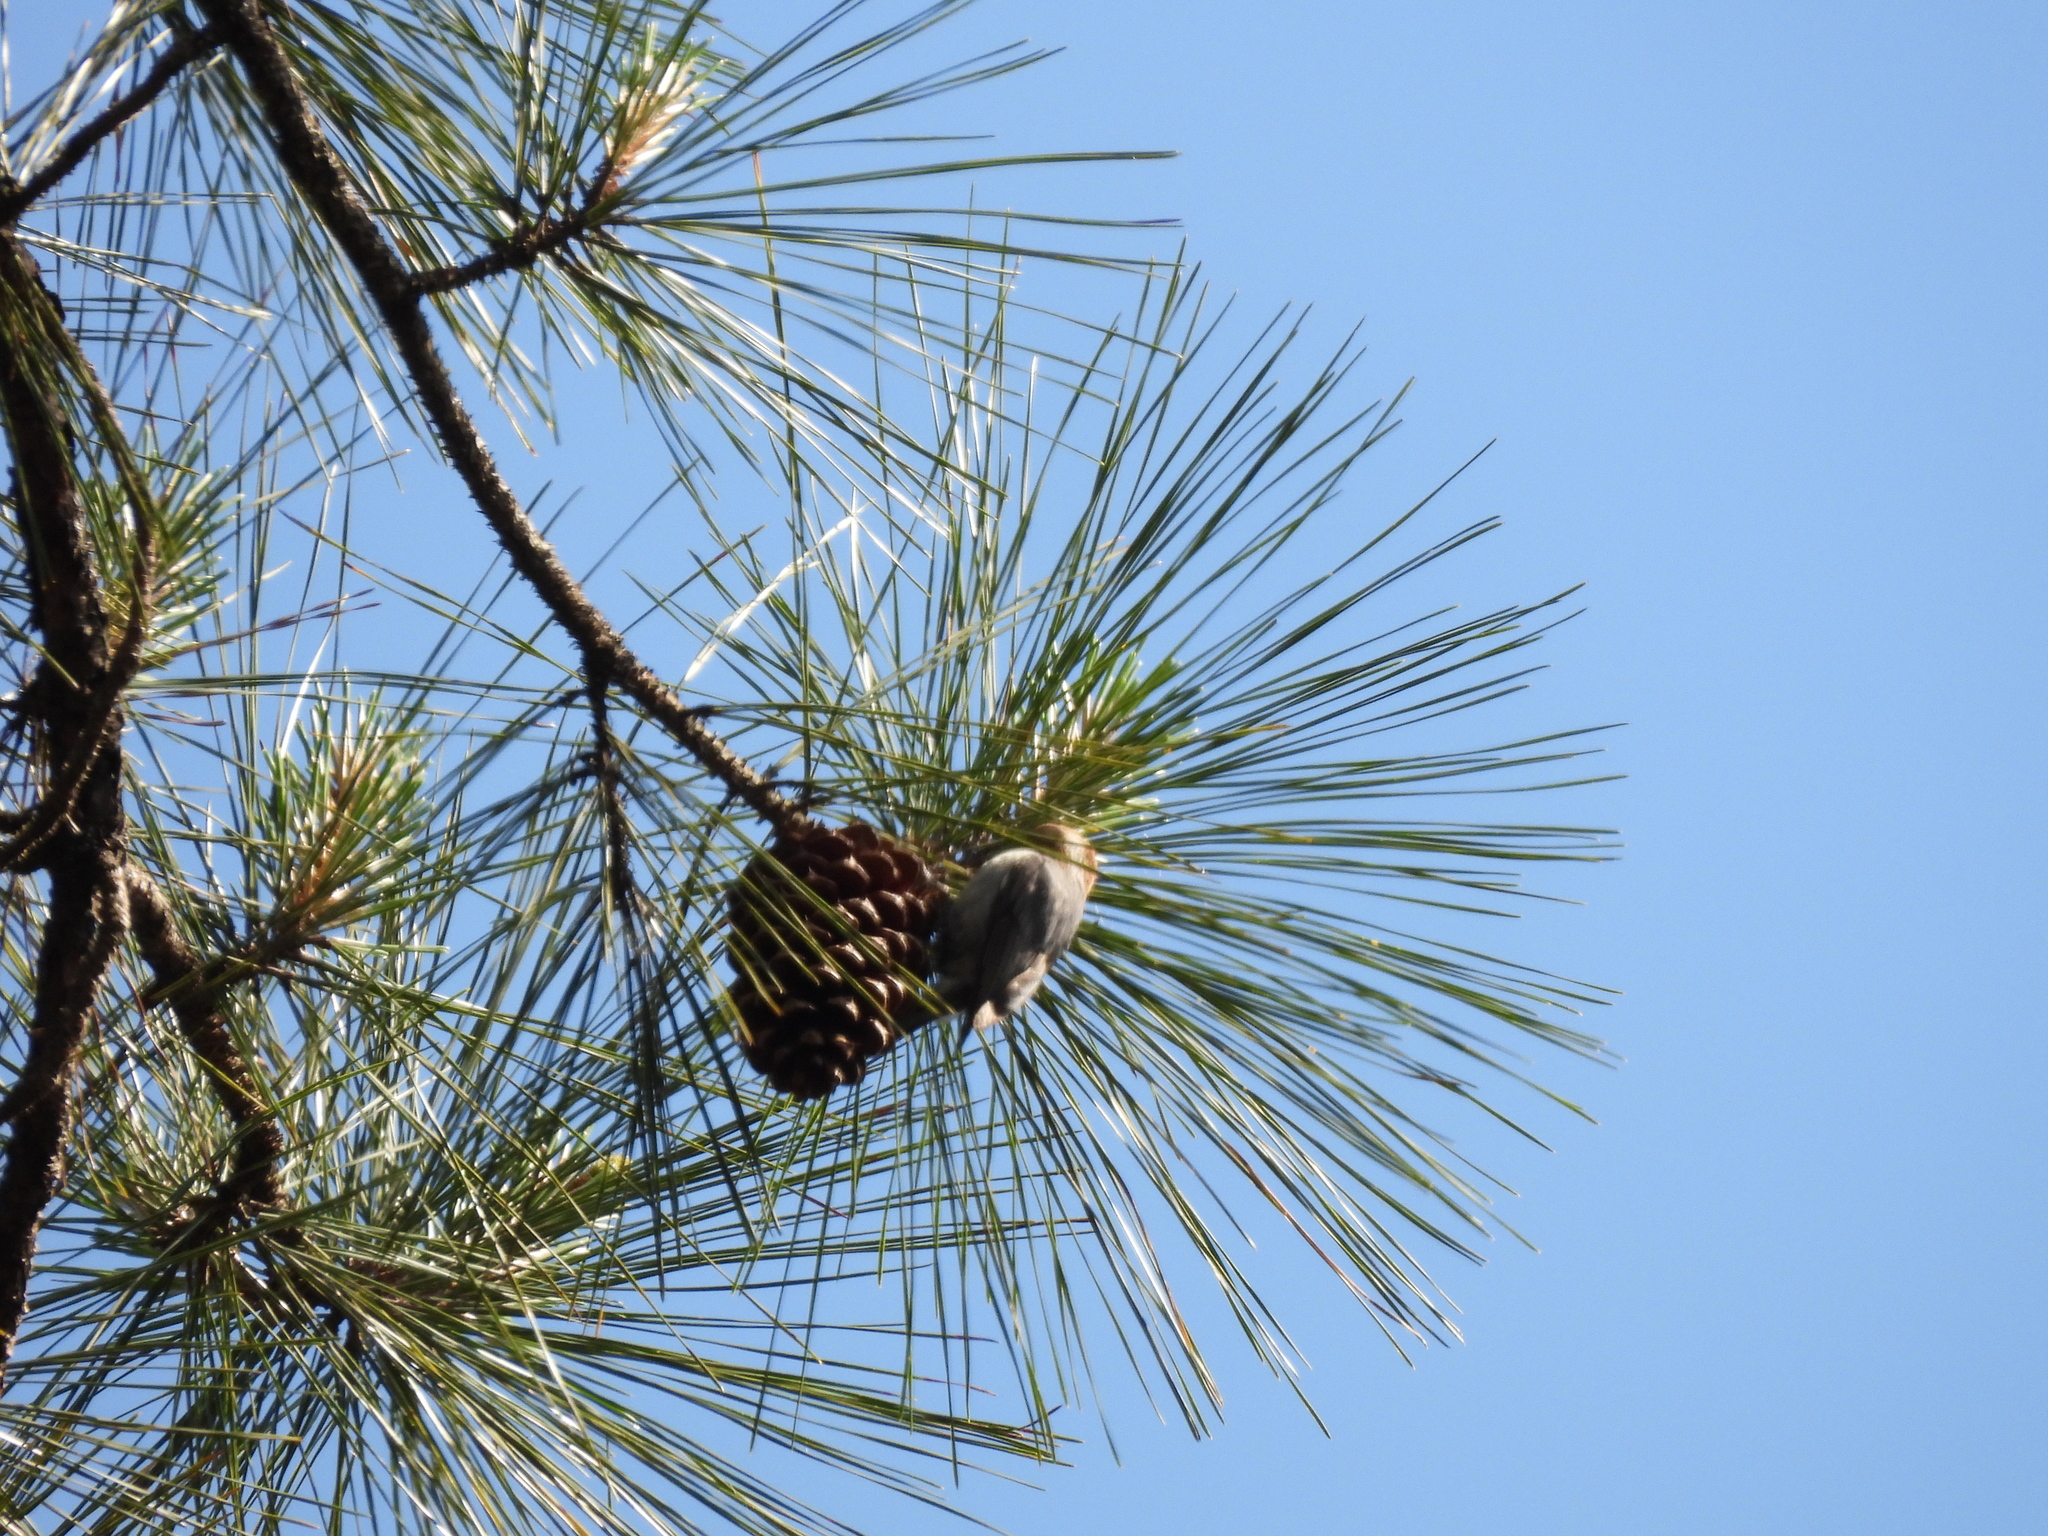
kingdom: Animalia
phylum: Chordata
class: Aves
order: Passeriformes
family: Sittidae
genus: Sitta
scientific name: Sitta pusilla
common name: Brown-headed nuthatch
